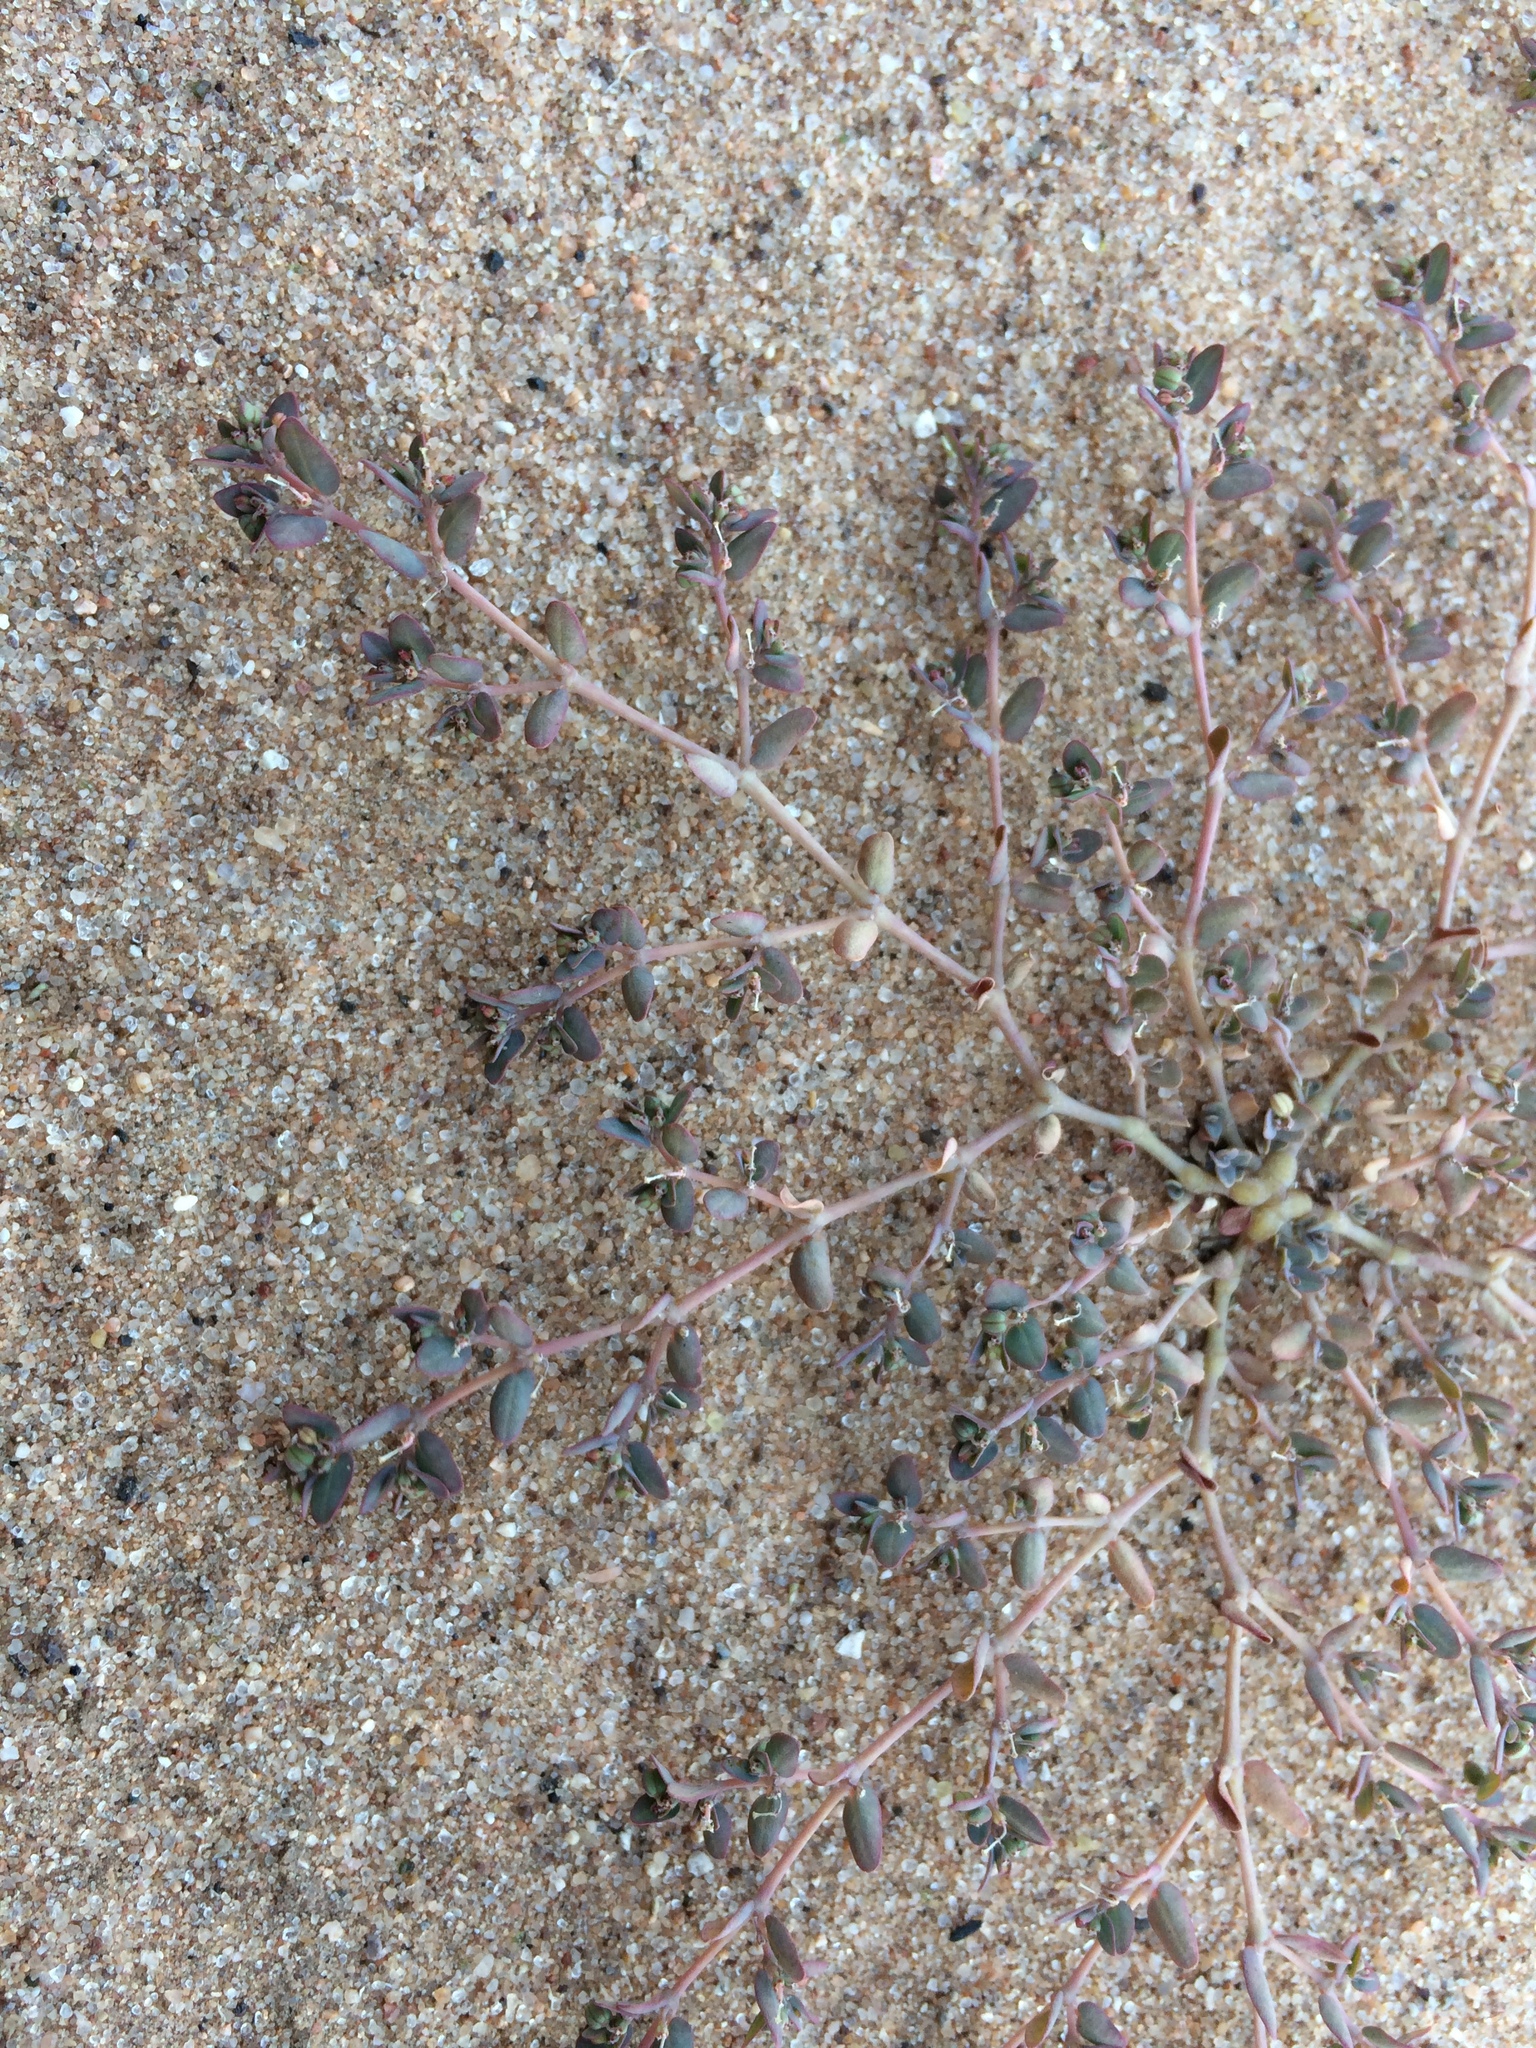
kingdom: Plantae
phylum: Tracheophyta
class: Magnoliopsida
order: Malpighiales
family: Euphorbiaceae
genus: Euphorbia
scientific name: Euphorbia micromera
